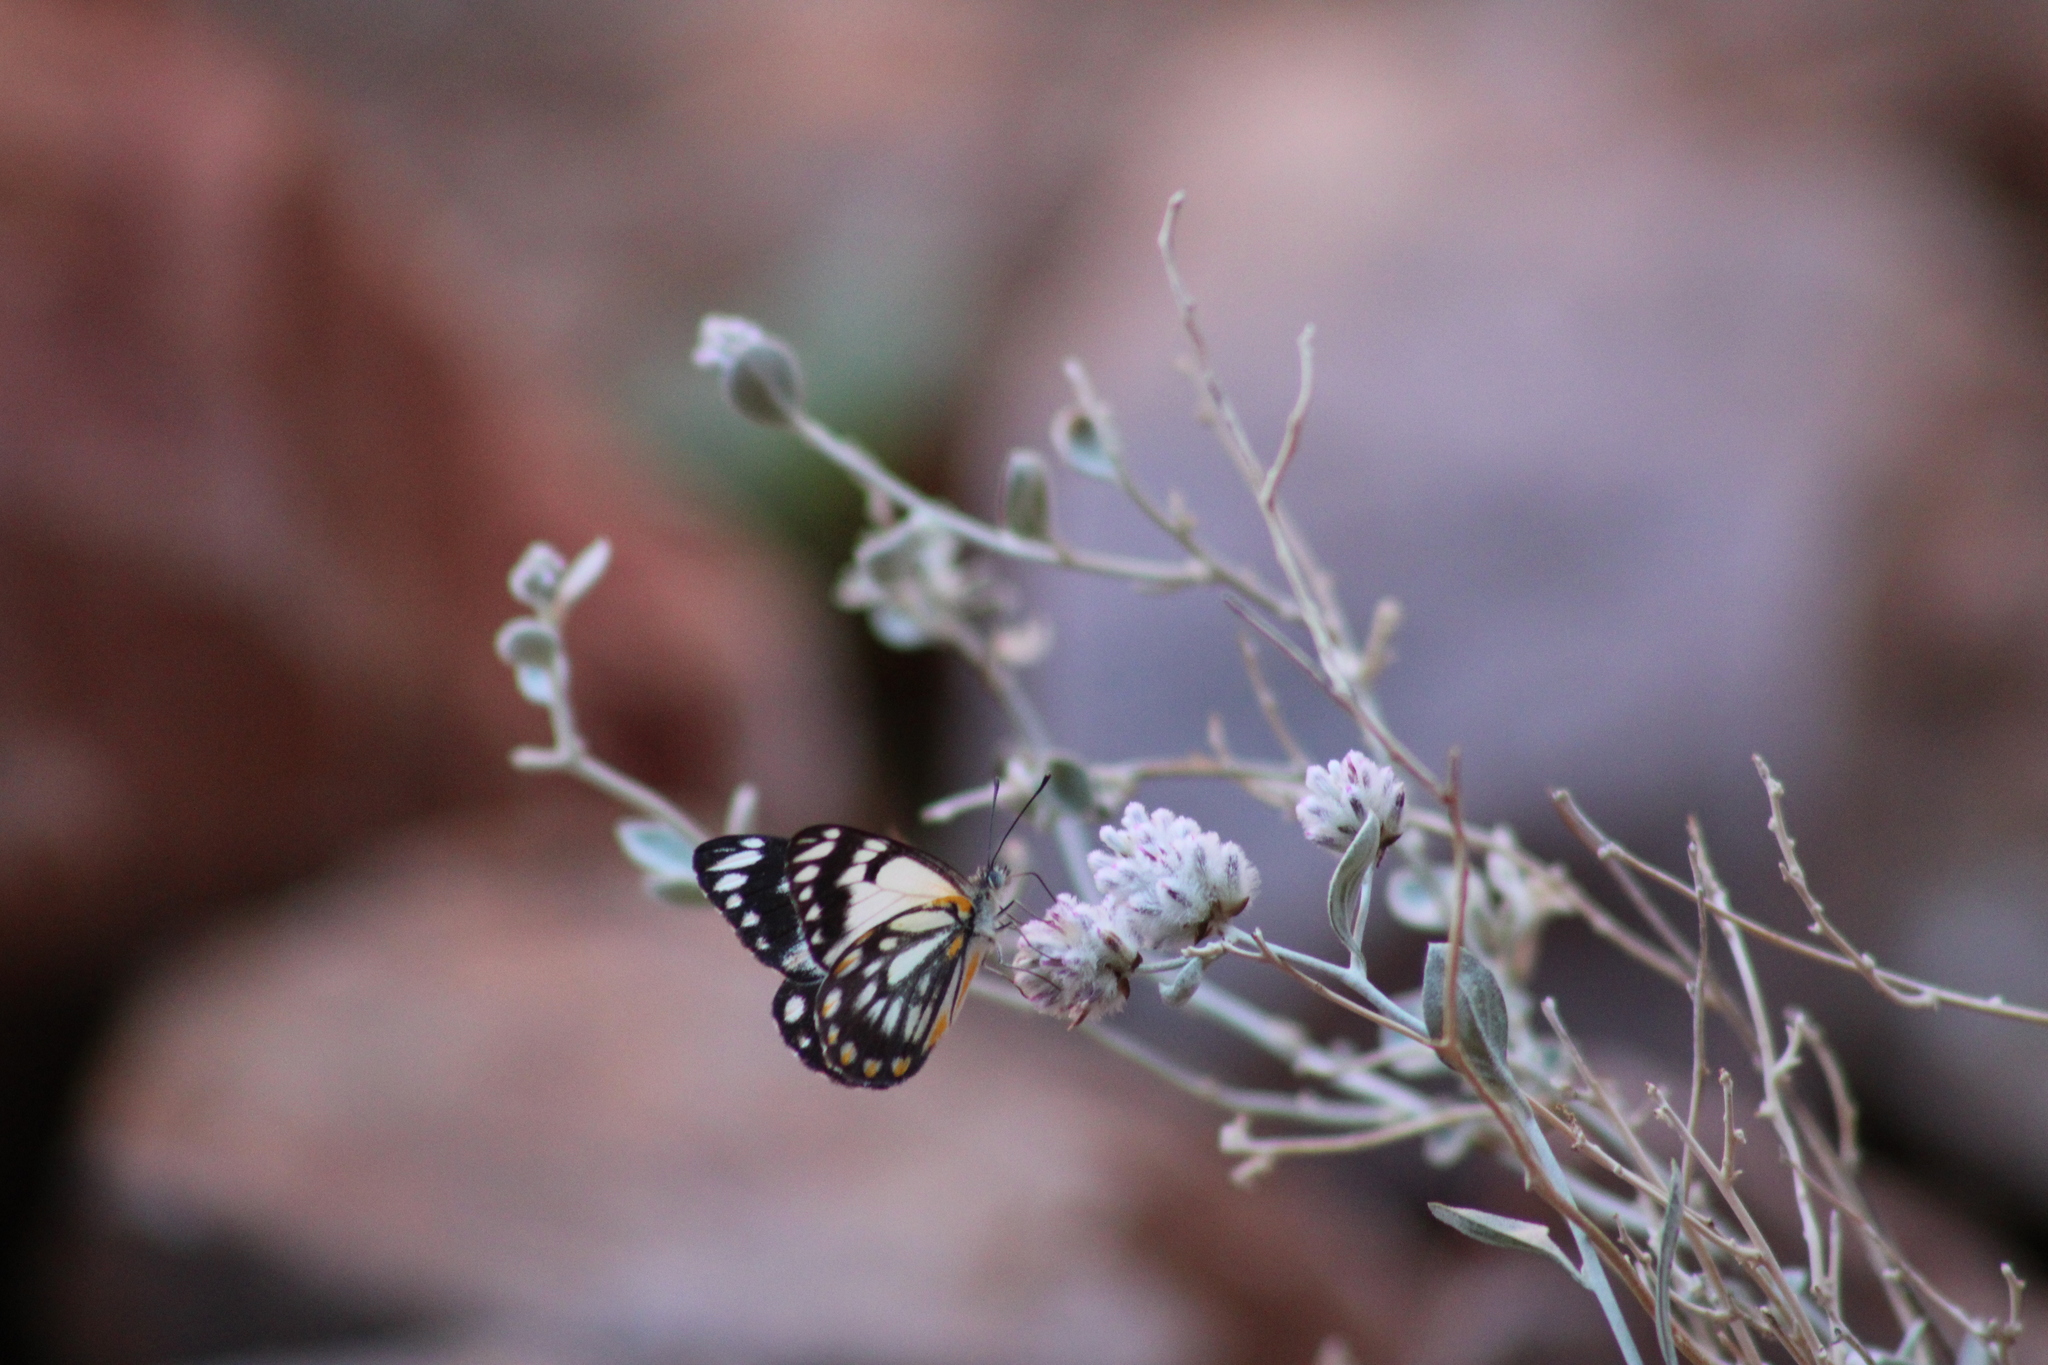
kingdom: Animalia
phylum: Arthropoda
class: Insecta
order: Lepidoptera
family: Pieridae
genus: Belenois
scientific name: Belenois java
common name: Caper white
